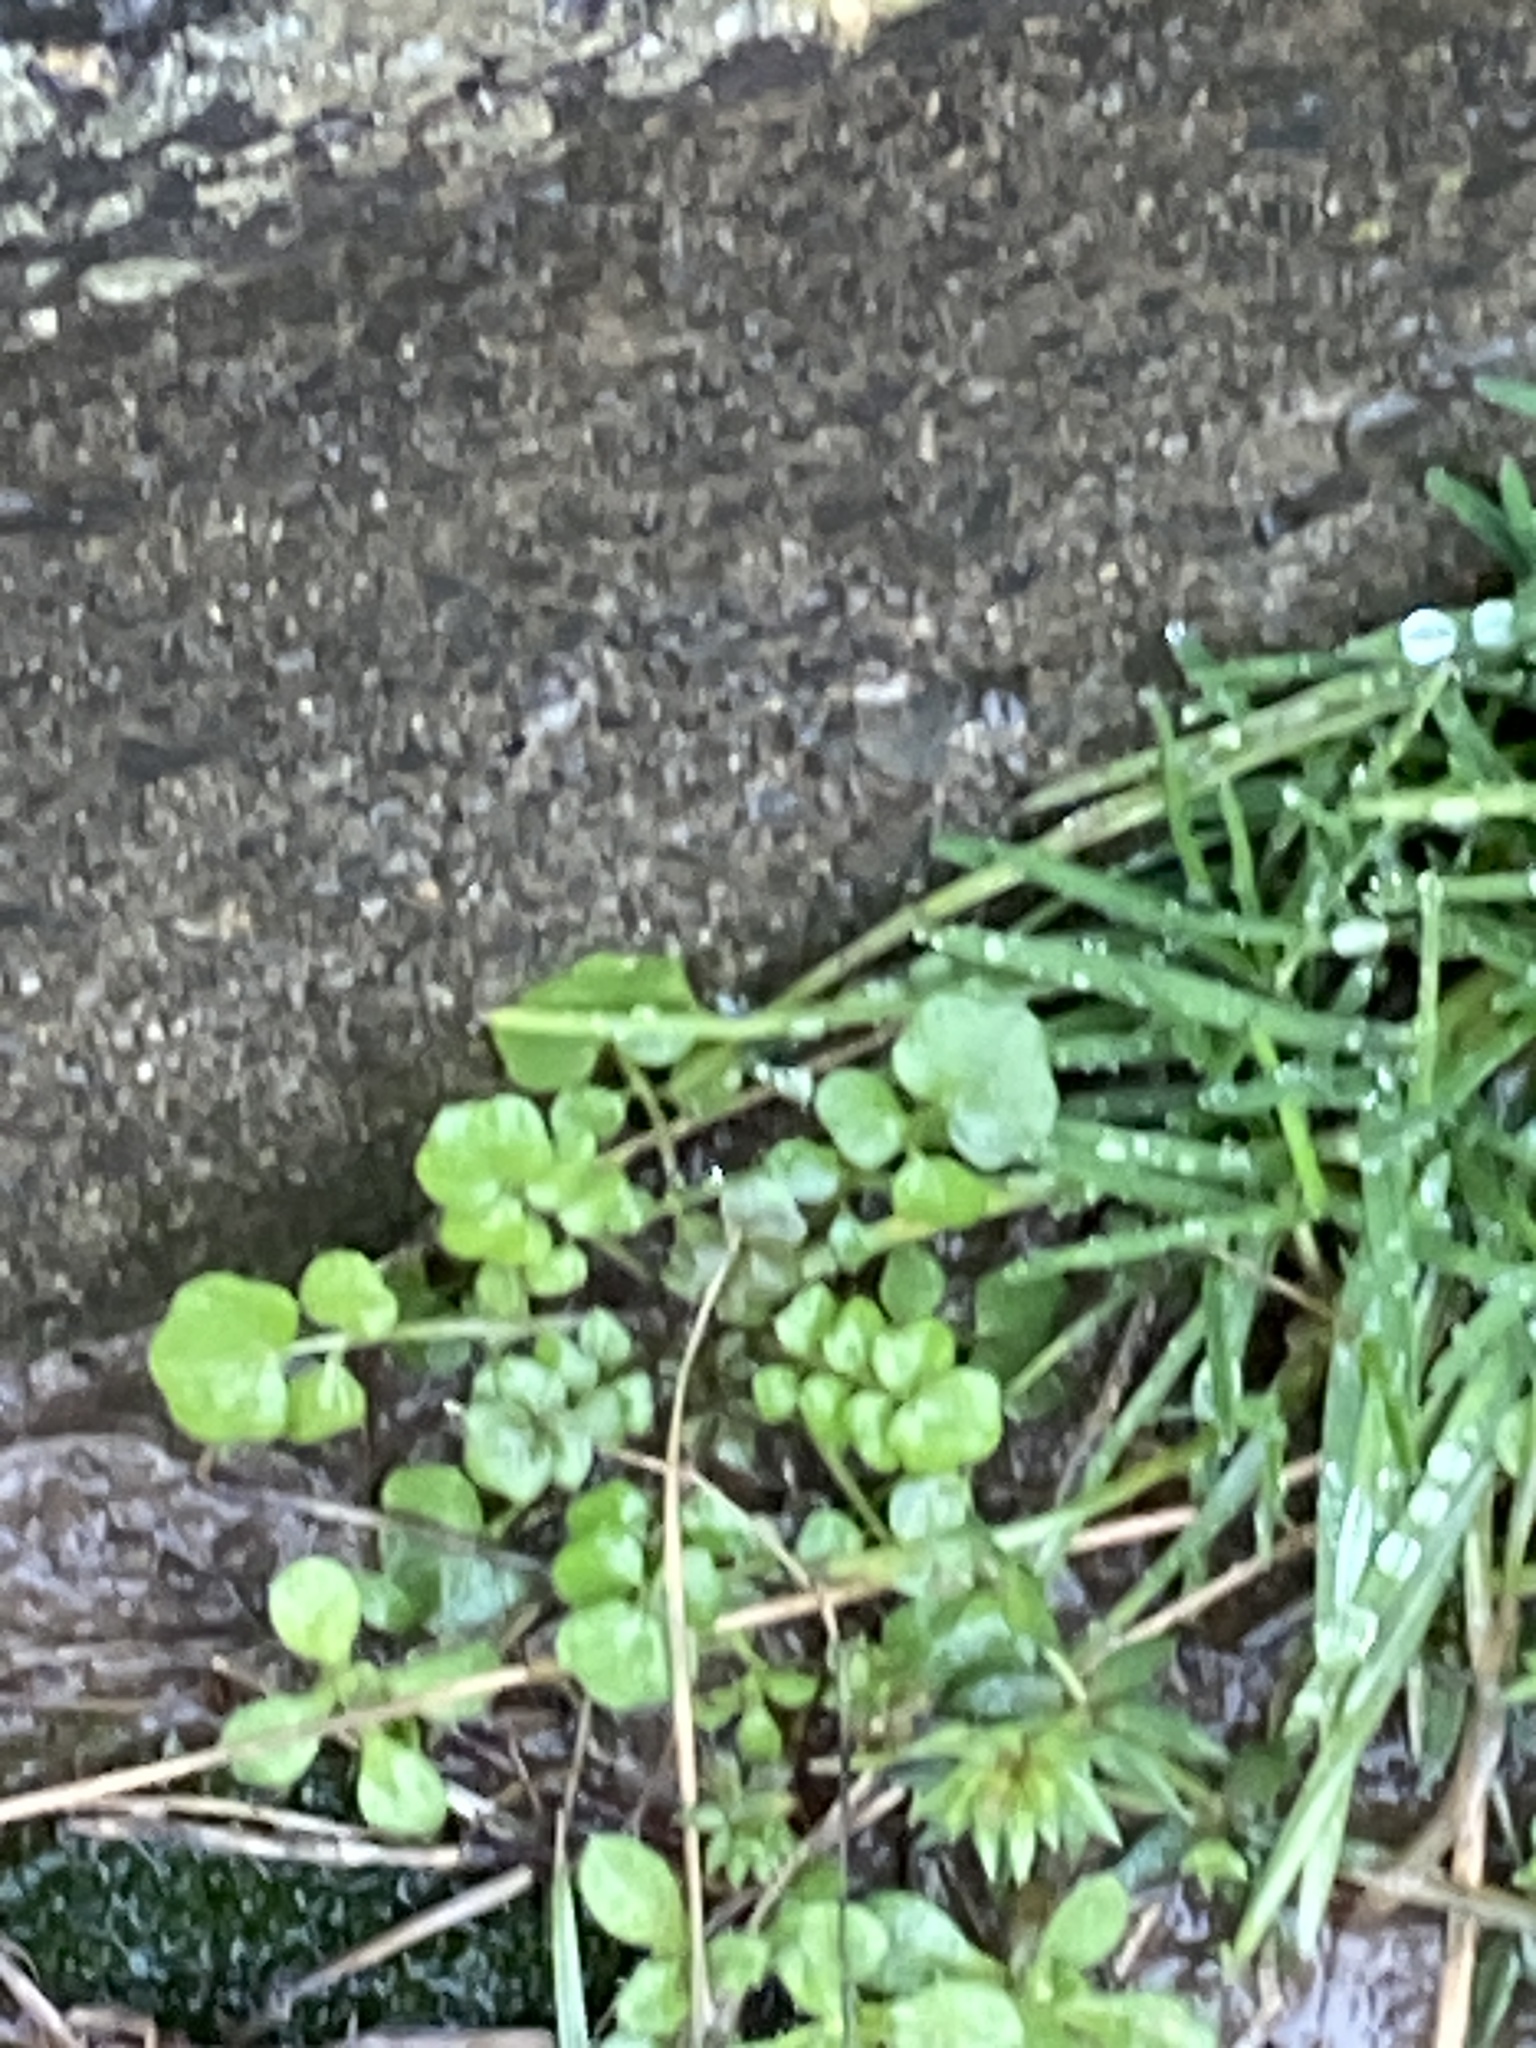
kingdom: Plantae
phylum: Tracheophyta
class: Magnoliopsida
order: Brassicales
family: Brassicaceae
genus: Cardamine
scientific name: Cardamine hirsuta
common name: Hairy bittercress
